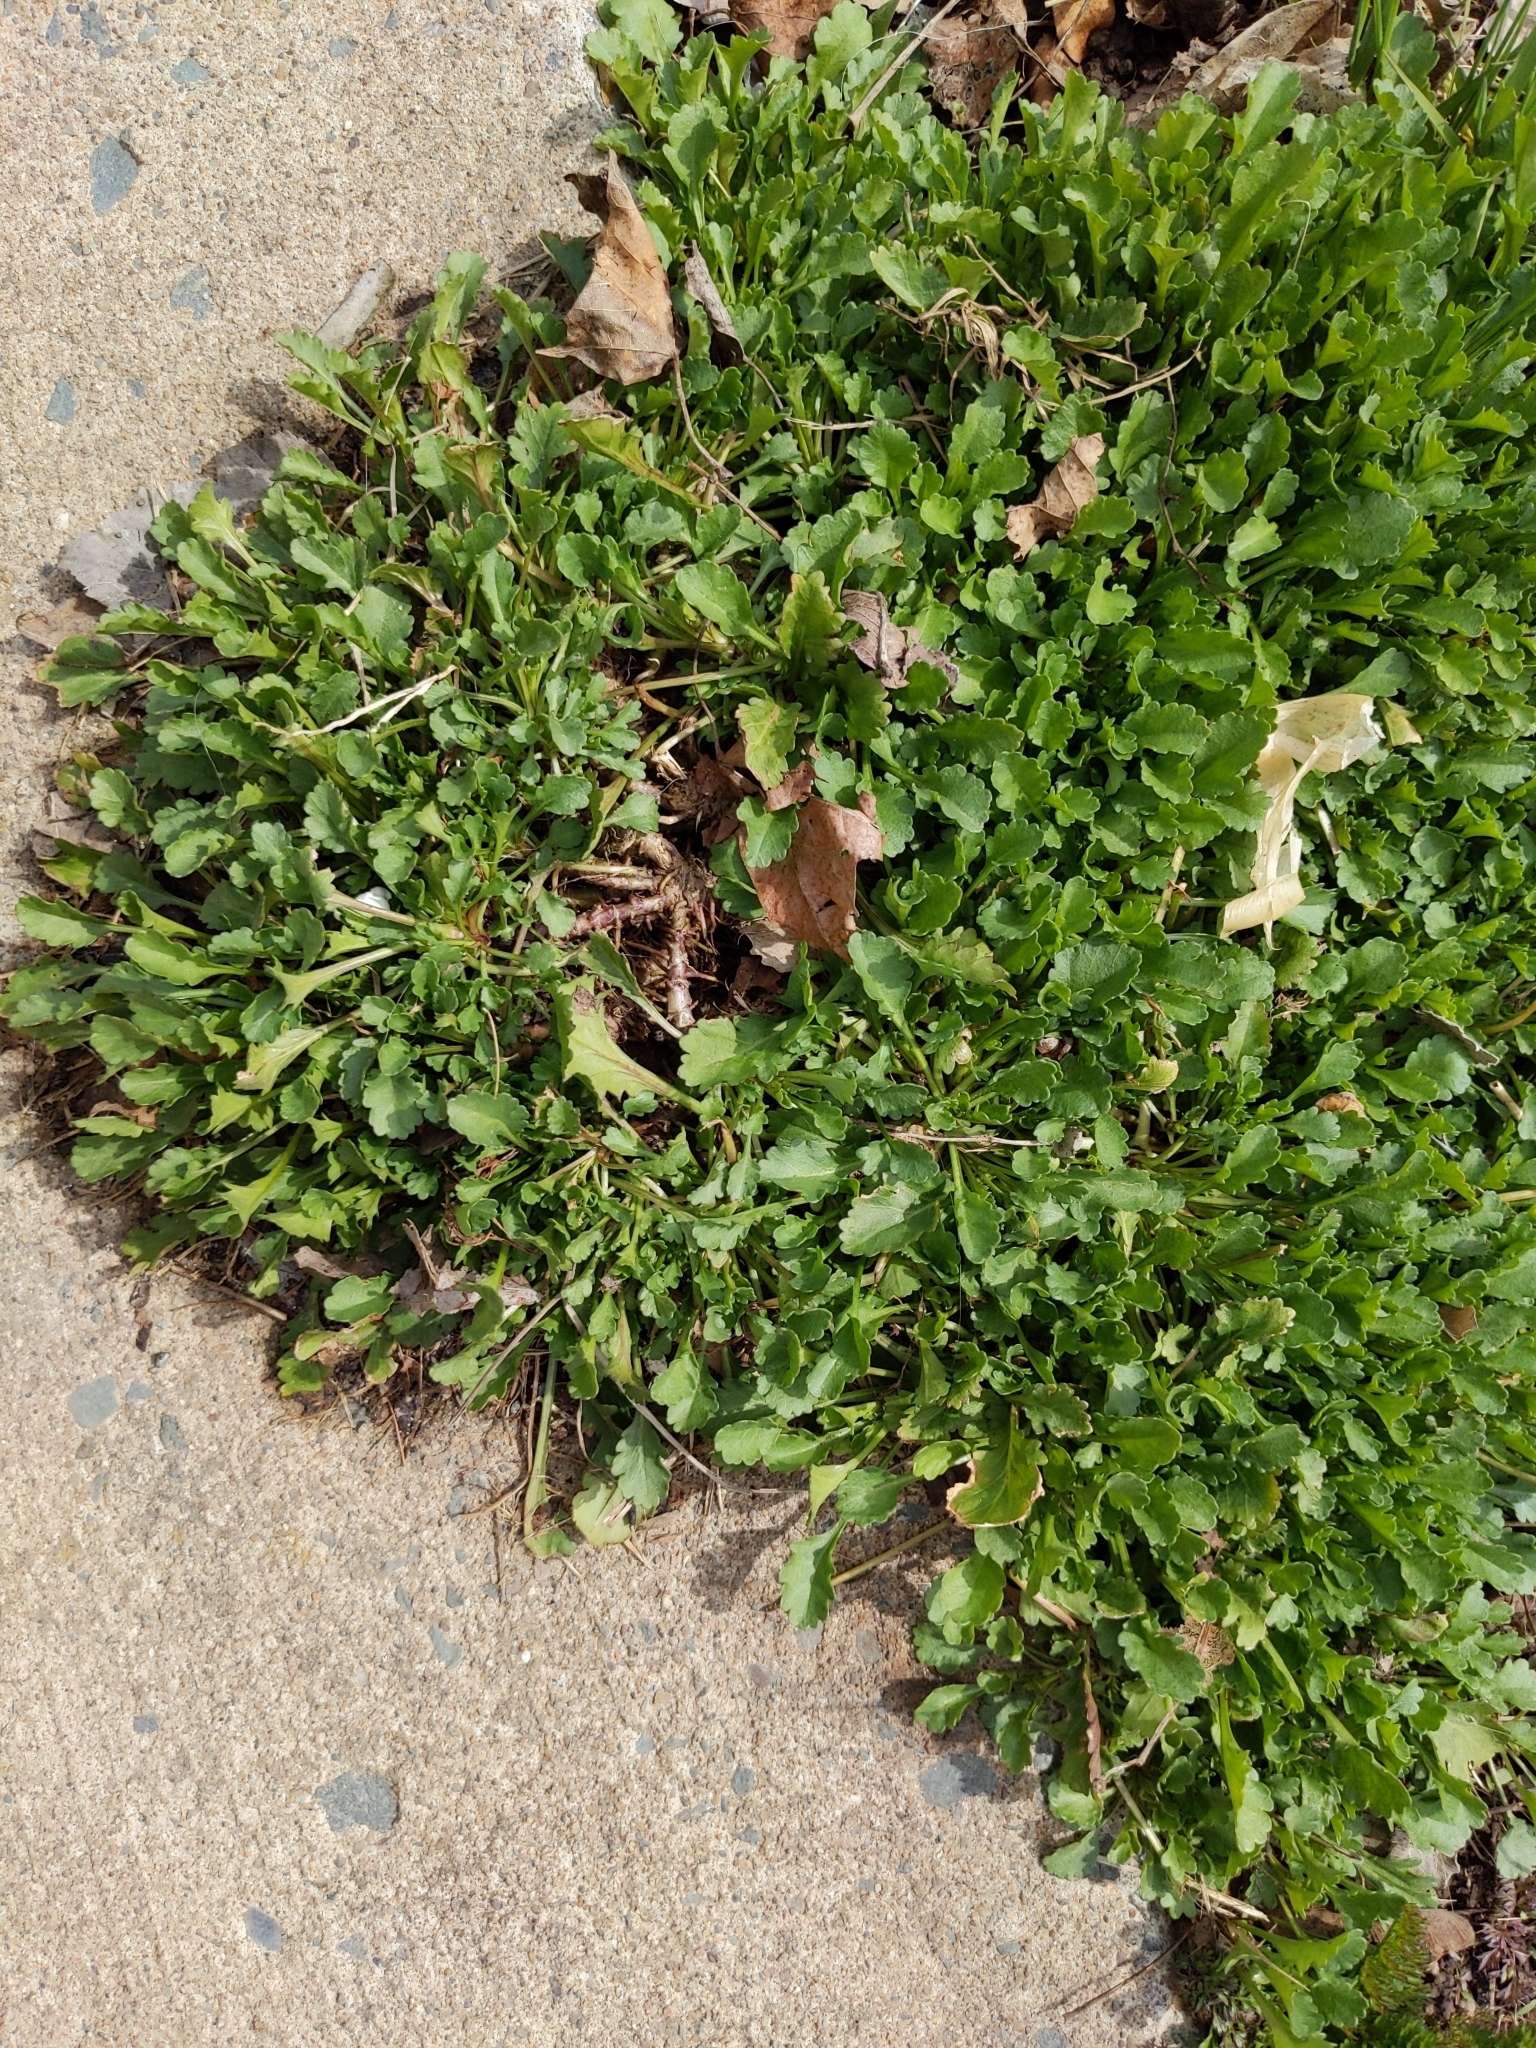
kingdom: Plantae
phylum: Tracheophyta
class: Magnoliopsida
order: Asterales
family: Asteraceae
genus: Leucanthemum
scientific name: Leucanthemum vulgare
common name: Oxeye daisy
